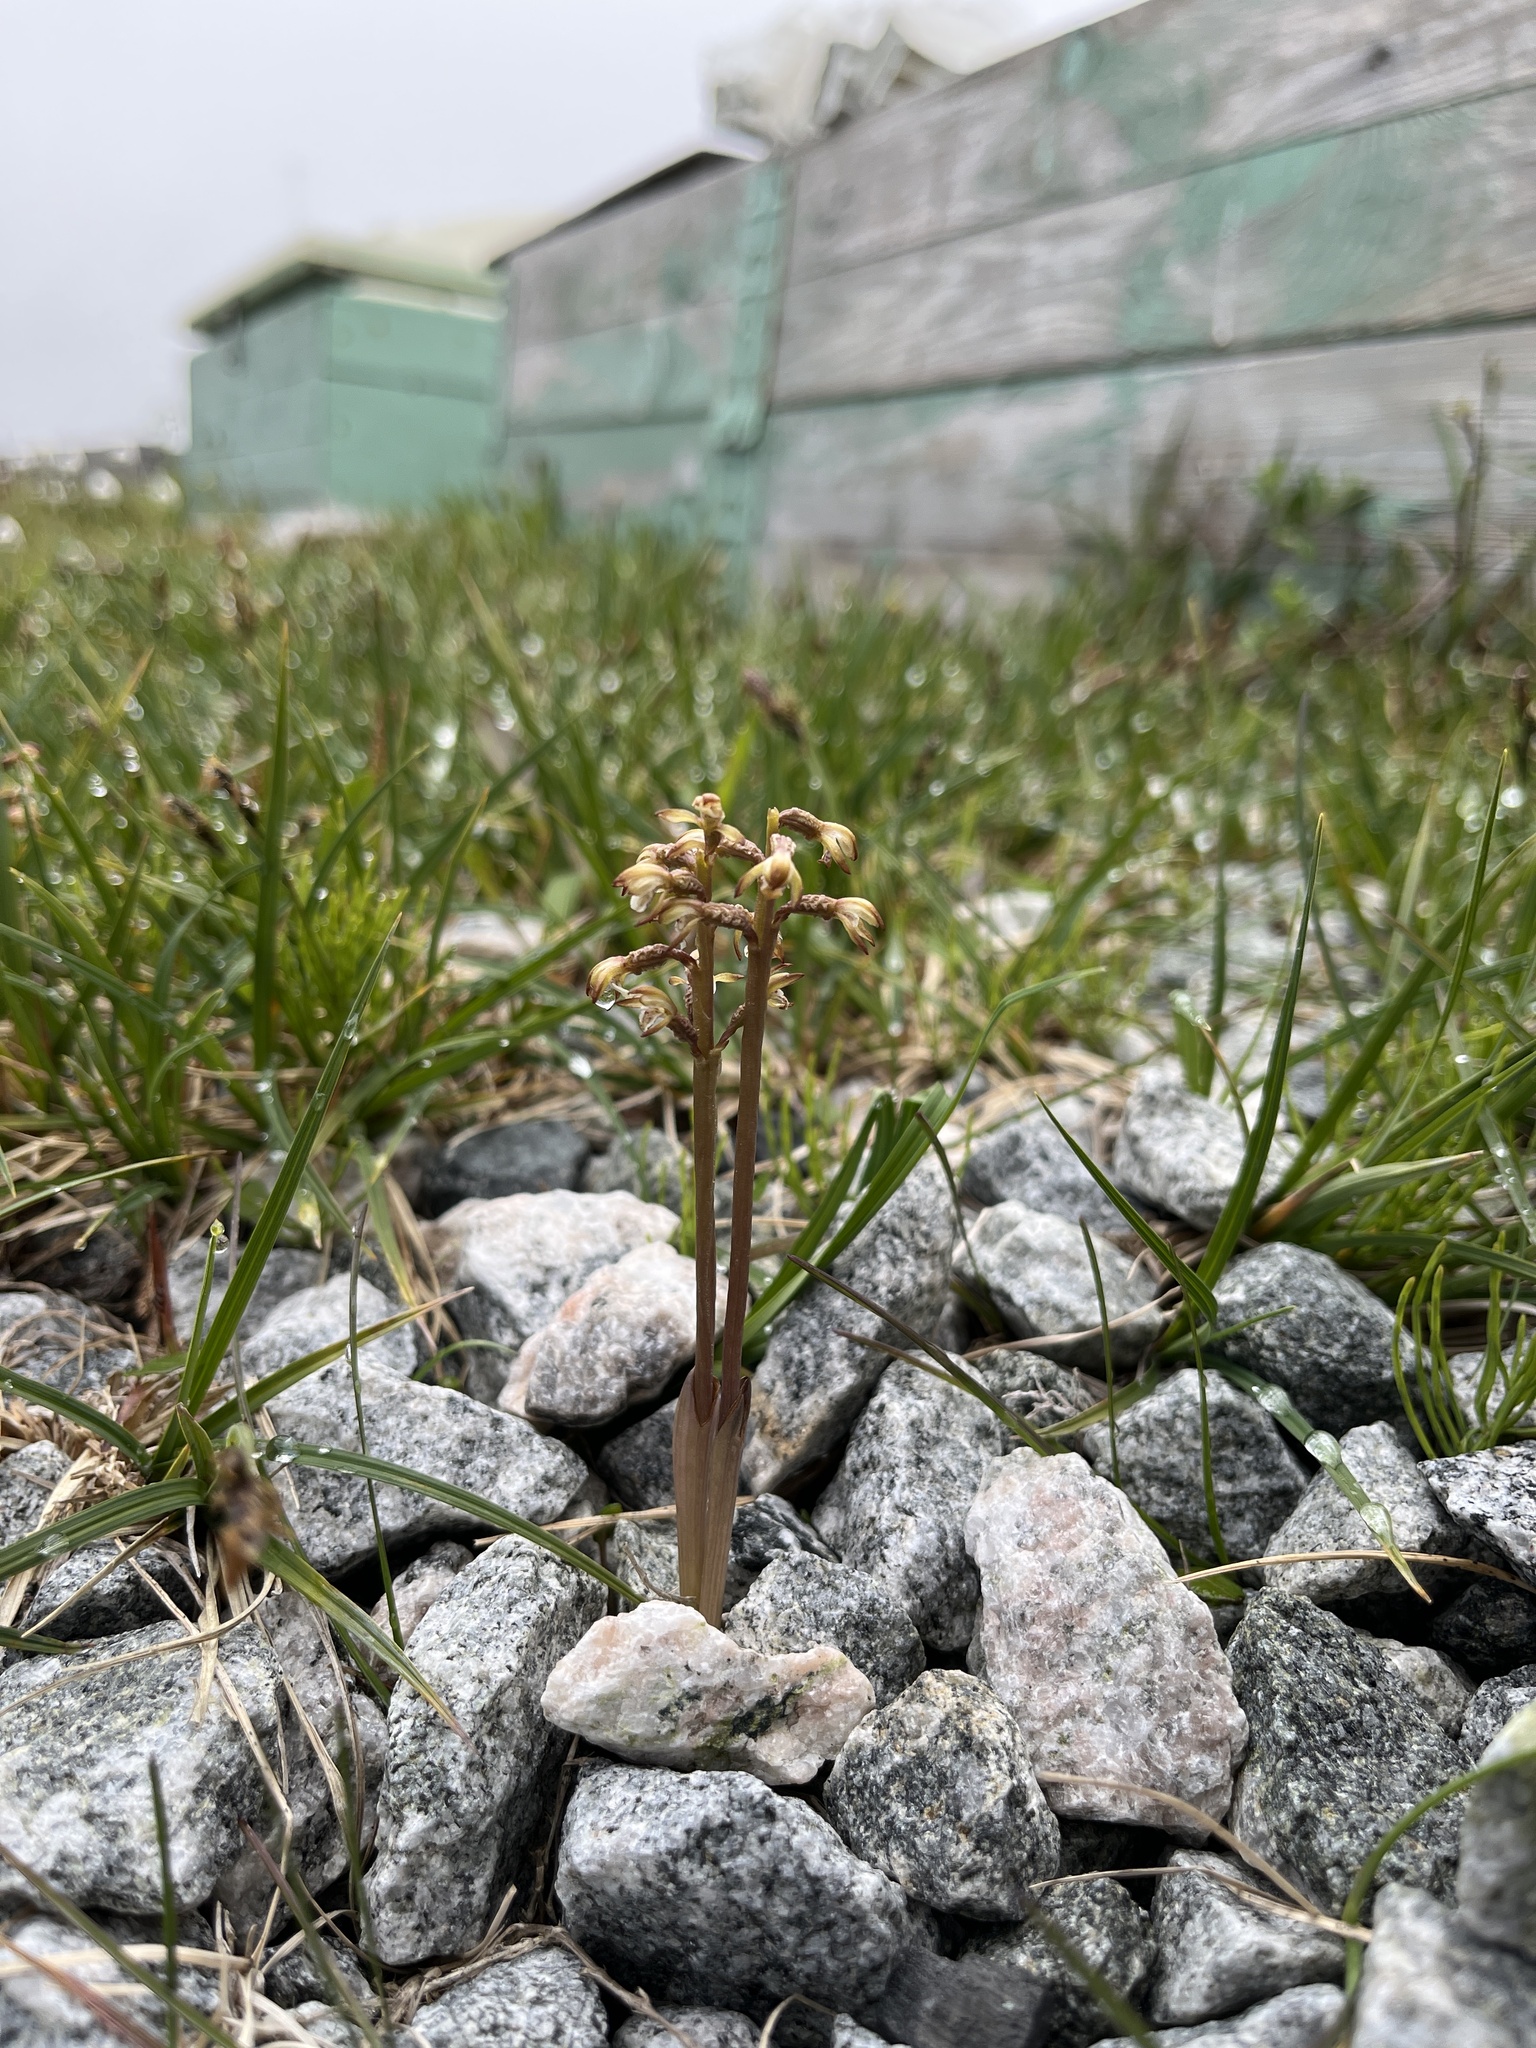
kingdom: Plantae
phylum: Tracheophyta
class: Liliopsida
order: Asparagales
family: Orchidaceae
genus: Corallorhiza
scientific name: Corallorhiza trifida
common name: Yellow coralroot
